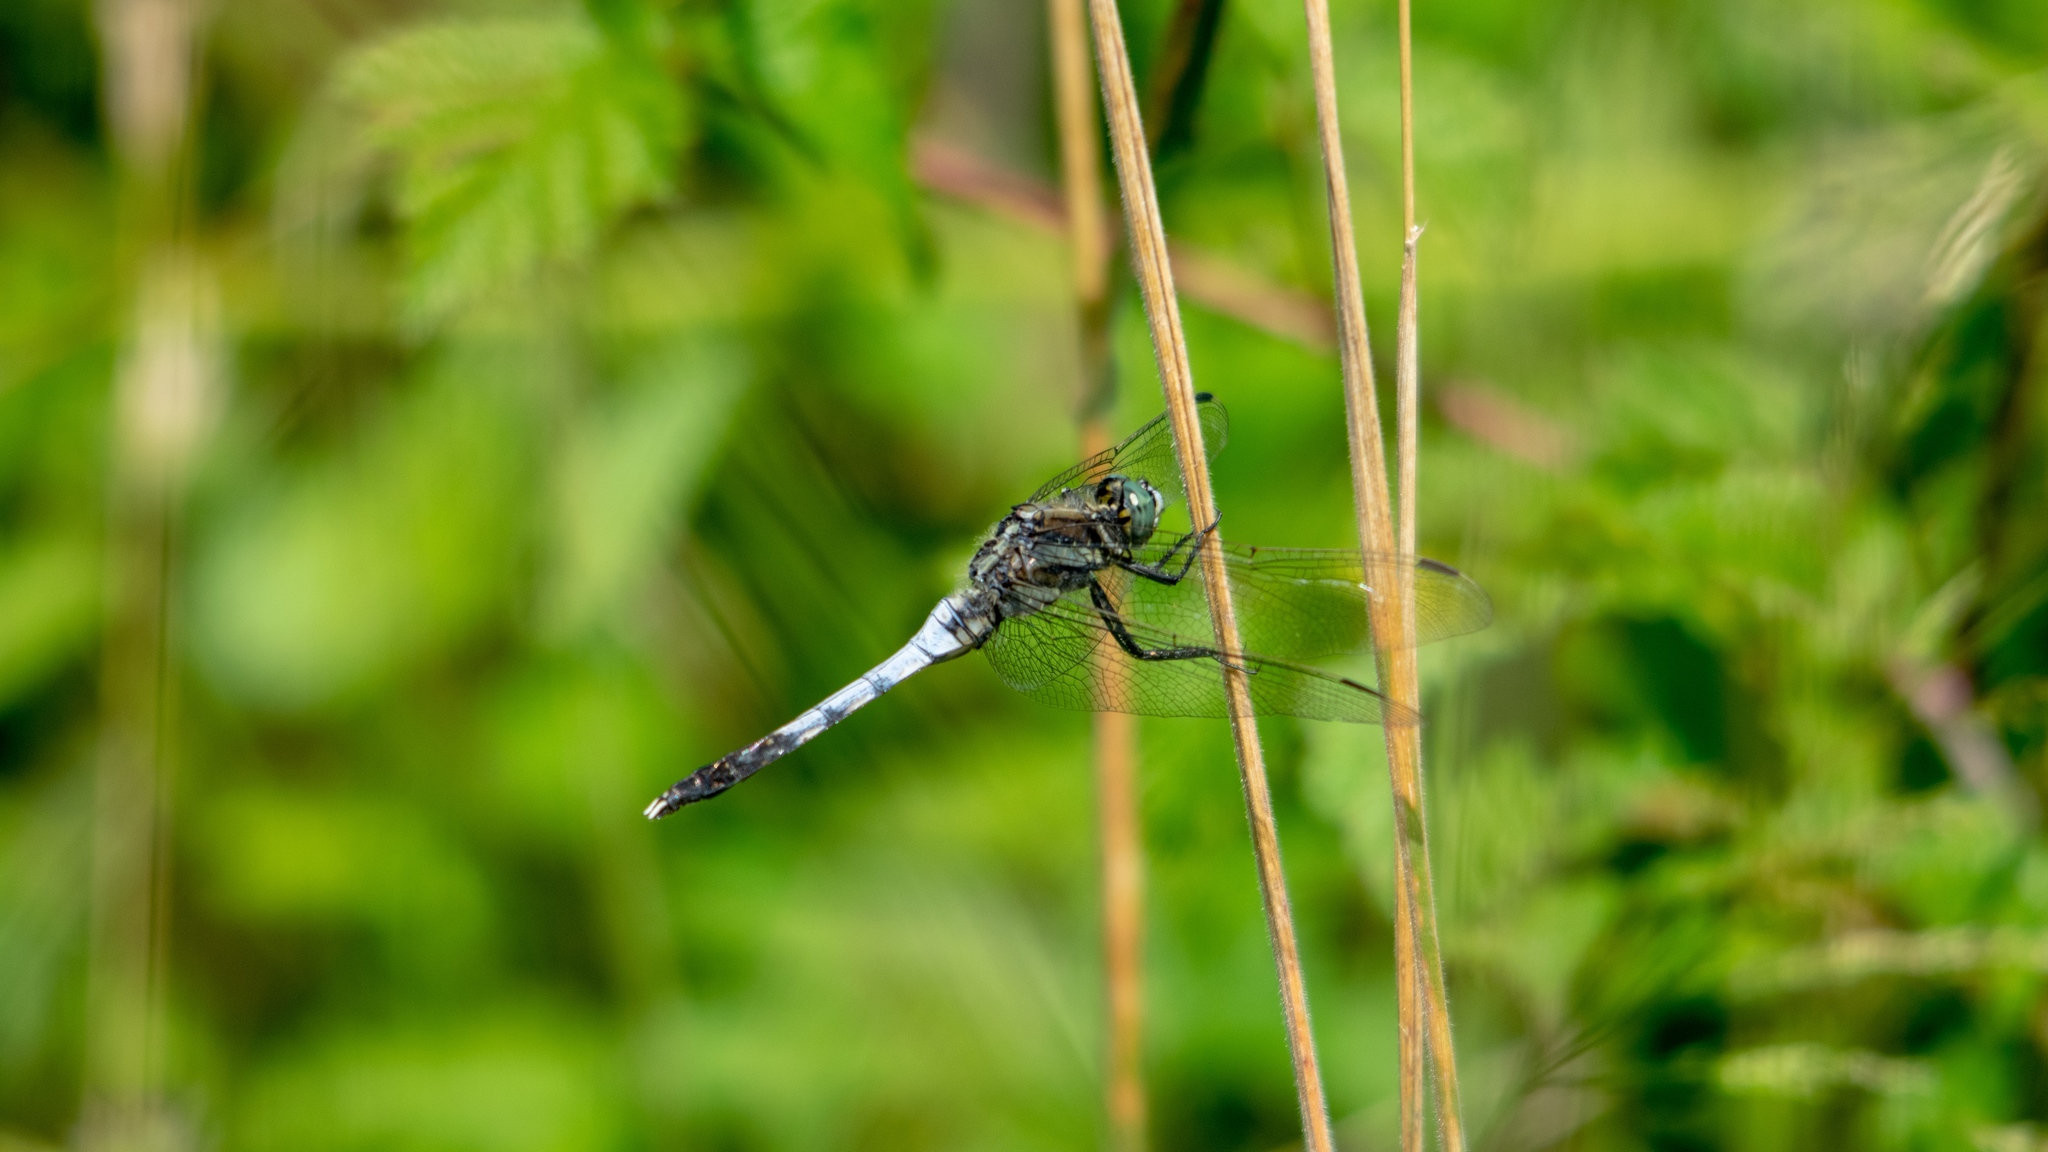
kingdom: Animalia
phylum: Arthropoda
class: Insecta
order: Odonata
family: Libellulidae
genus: Orthetrum
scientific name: Orthetrum albistylum
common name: White-tailed skimmer
